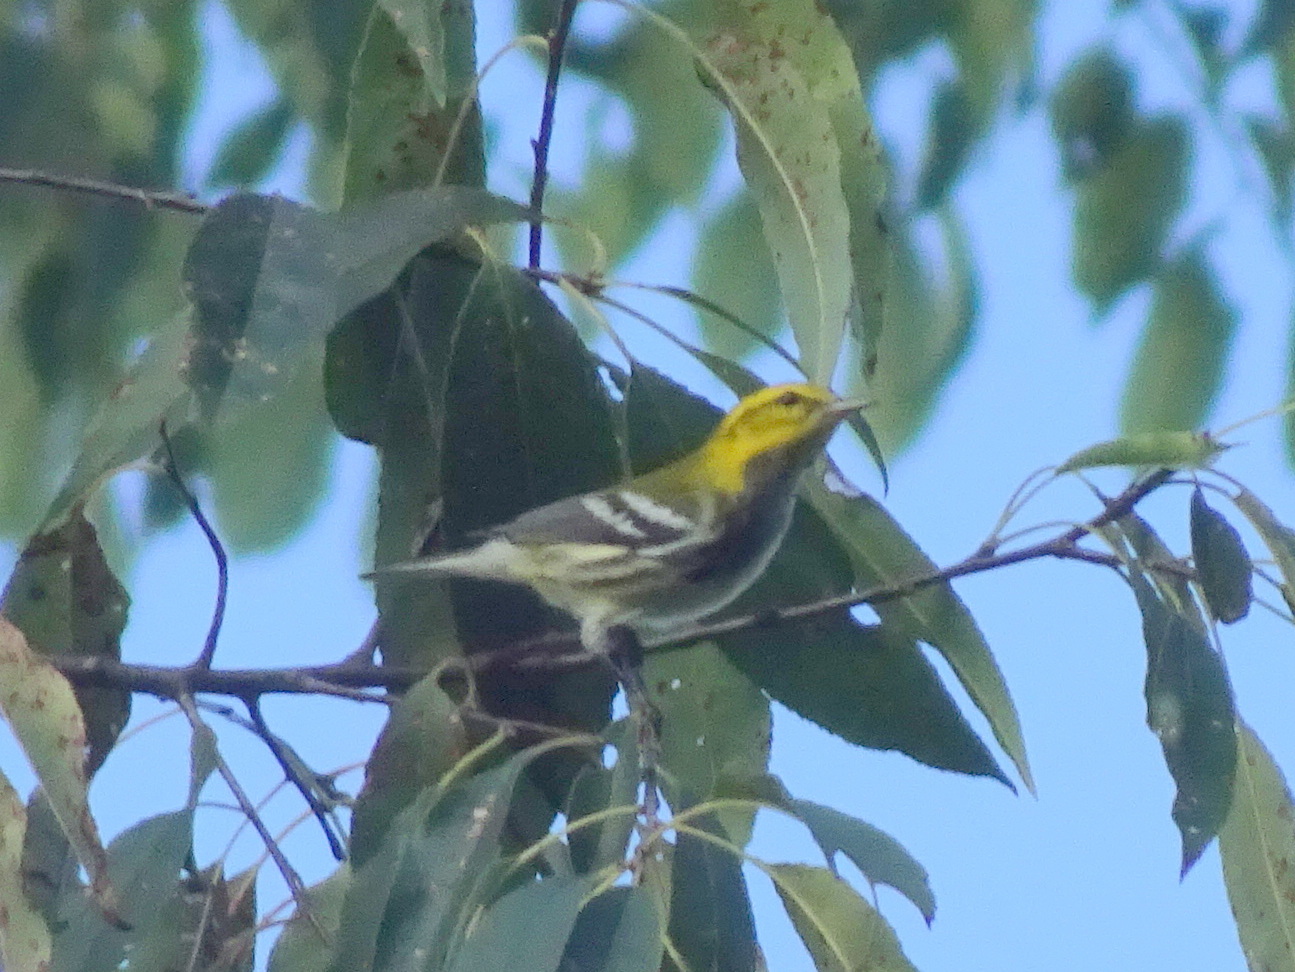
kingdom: Animalia
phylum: Chordata
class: Aves
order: Passeriformes
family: Parulidae
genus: Setophaga
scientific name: Setophaga virens
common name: Black-throated green warbler
